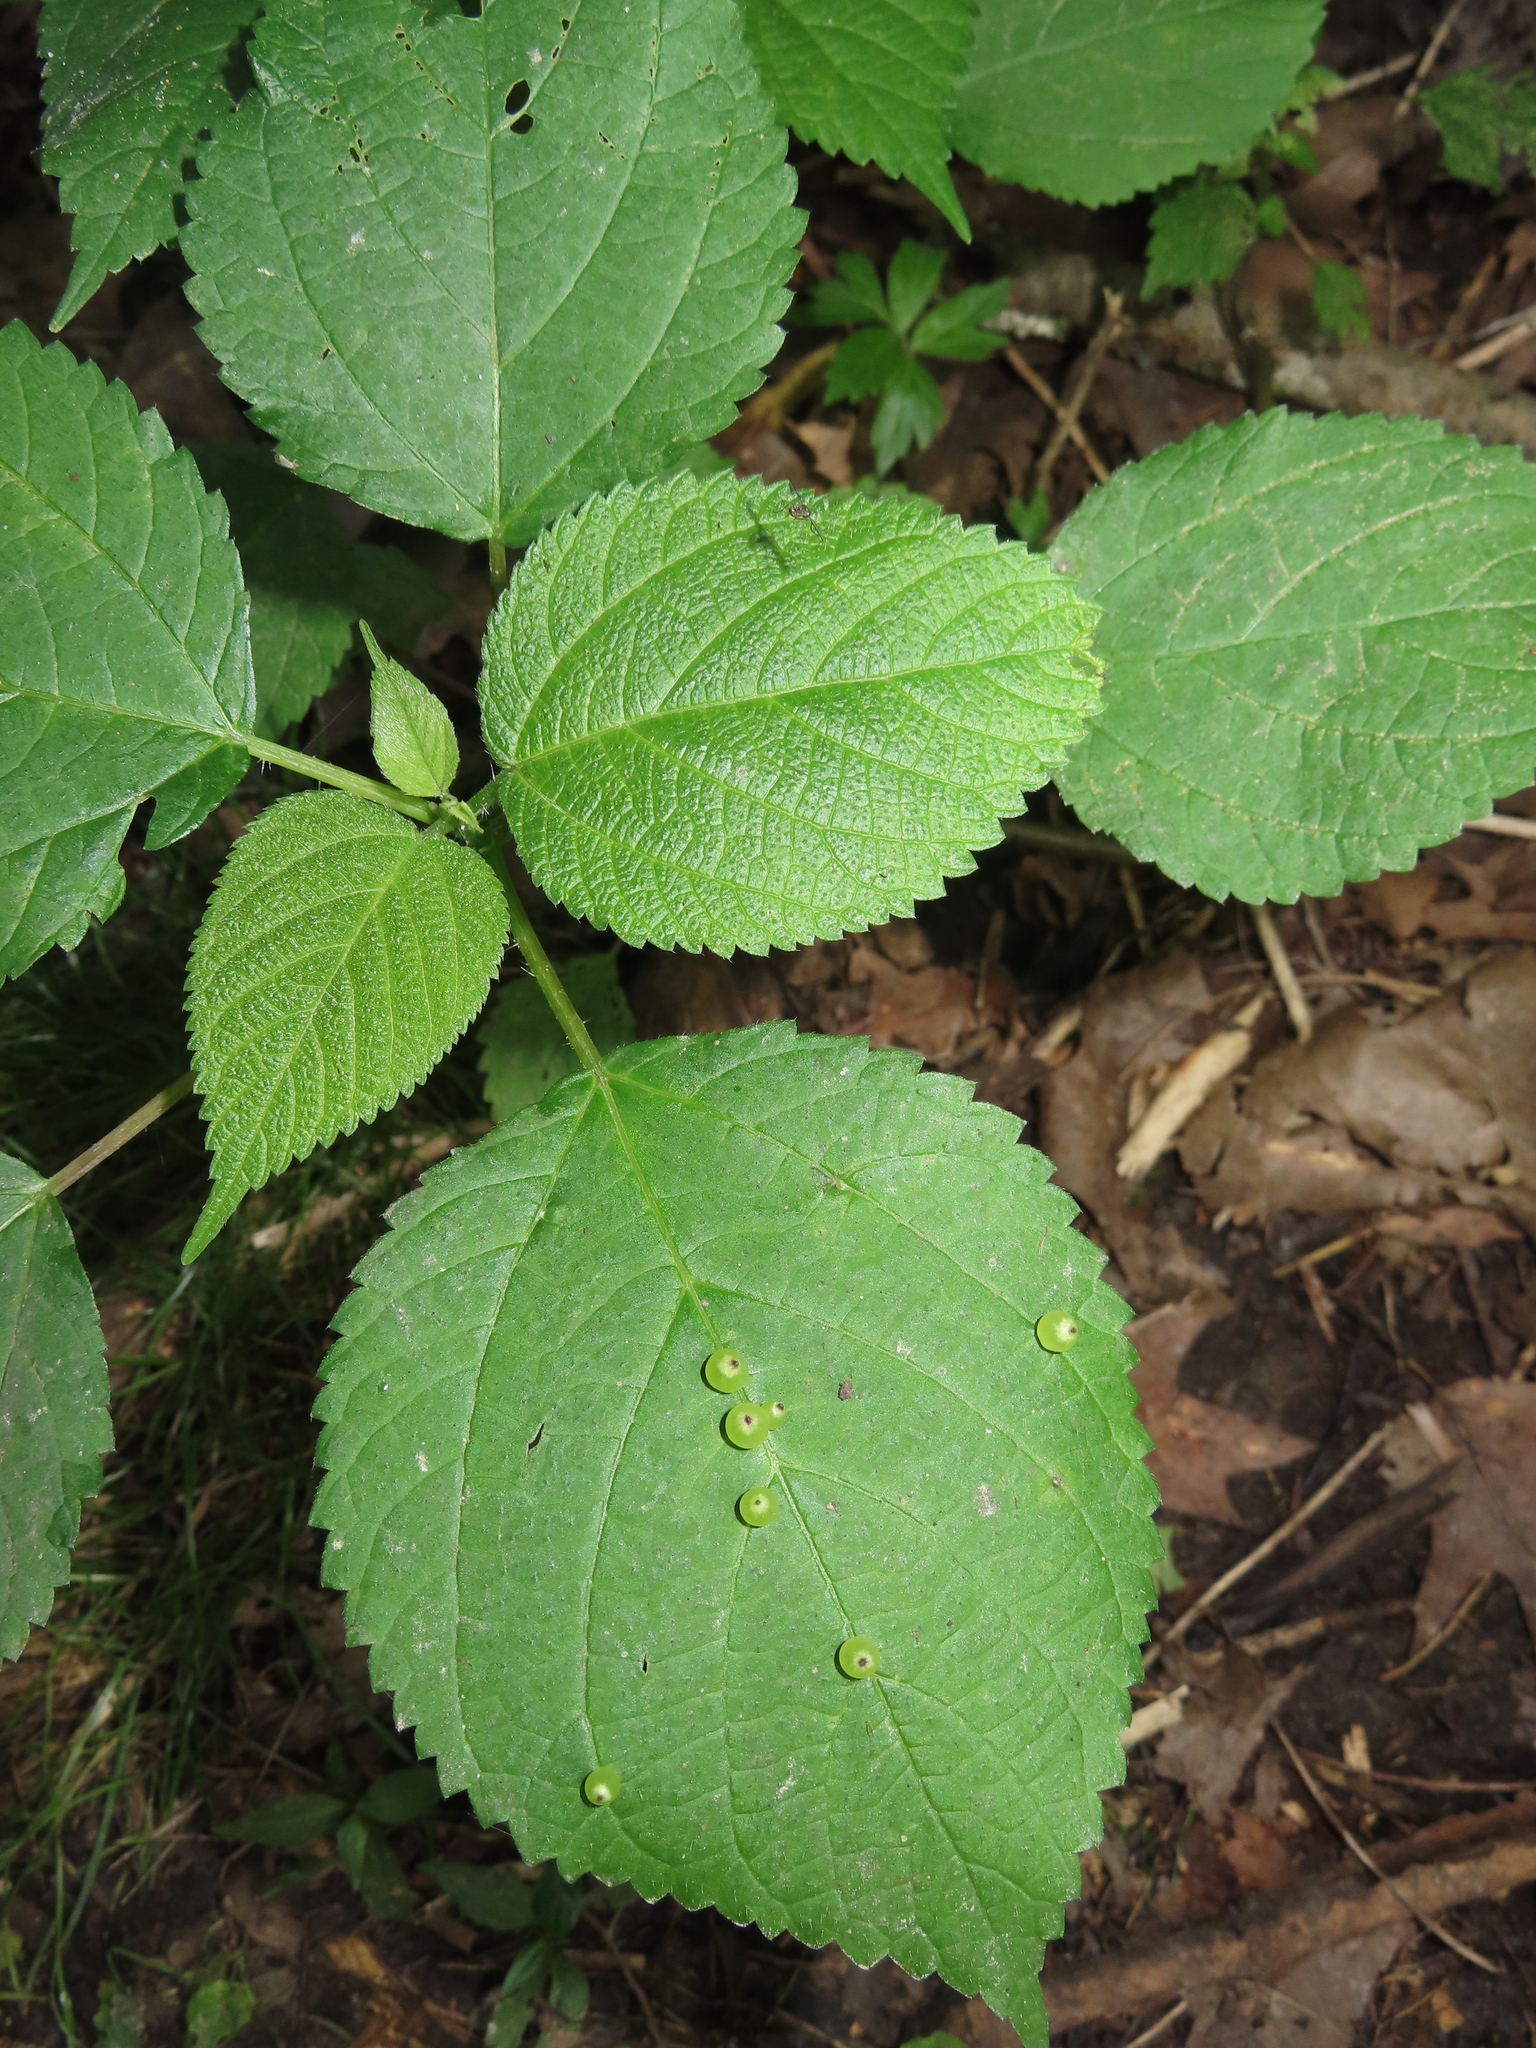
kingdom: Animalia
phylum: Arthropoda
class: Insecta
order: Diptera
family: Cecidomyiidae
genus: Dasineura
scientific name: Dasineura investita
